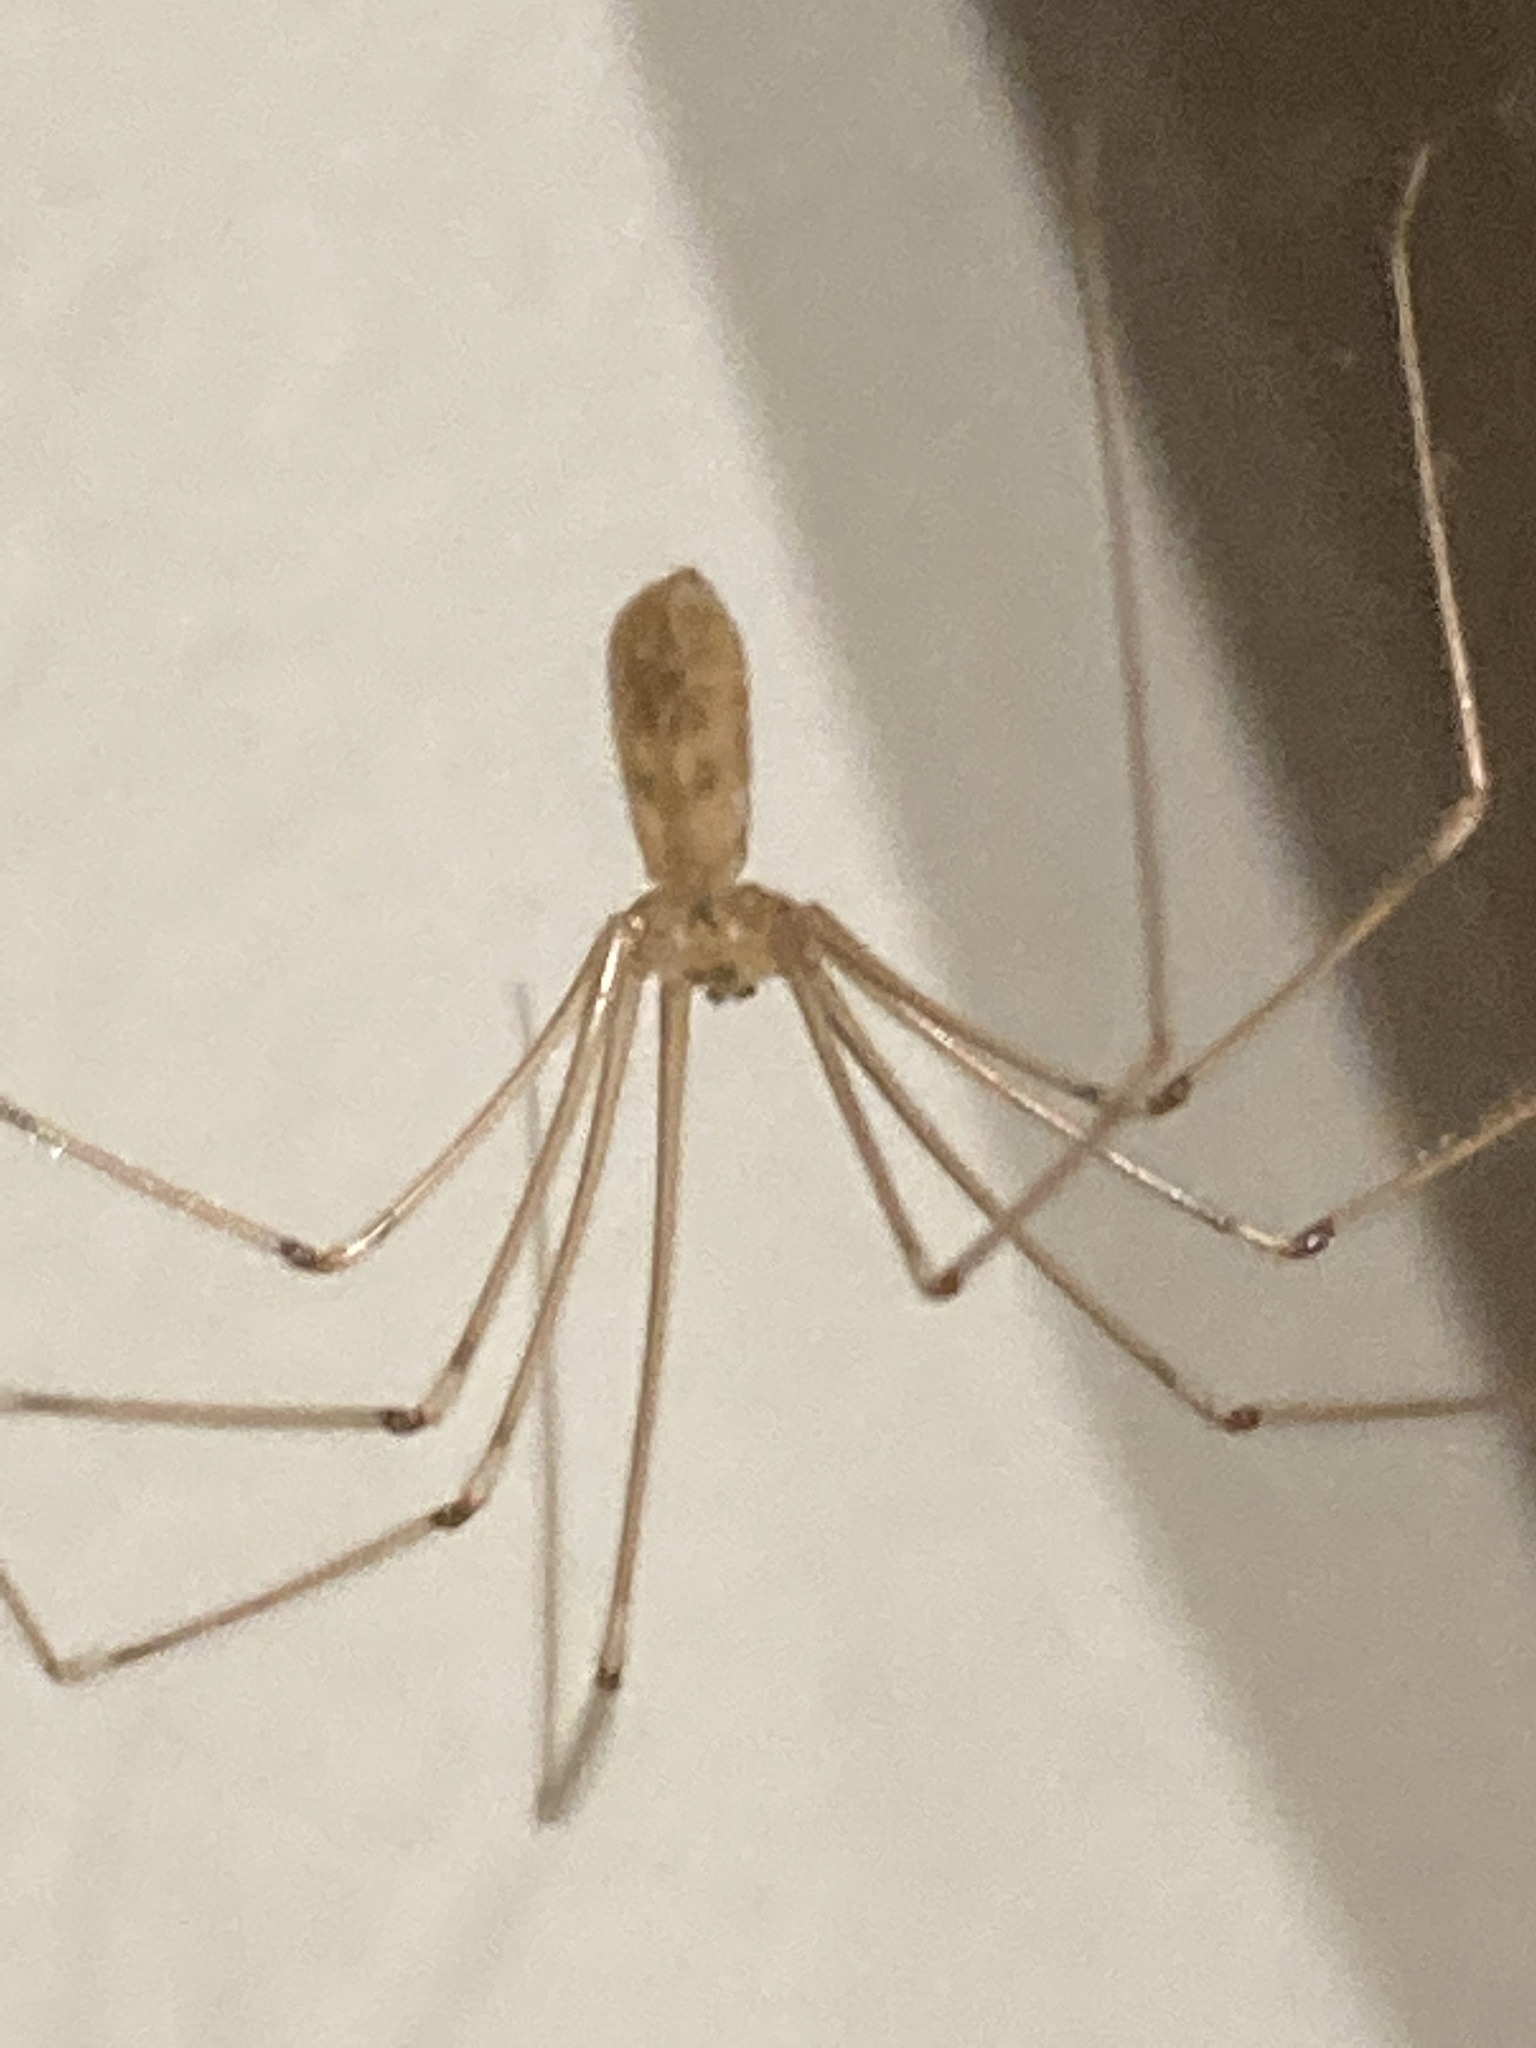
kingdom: Animalia
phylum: Arthropoda
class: Arachnida
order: Araneae
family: Pholcidae
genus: Pholcus
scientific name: Pholcus phalangioides
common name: Longbodied cellar spider
